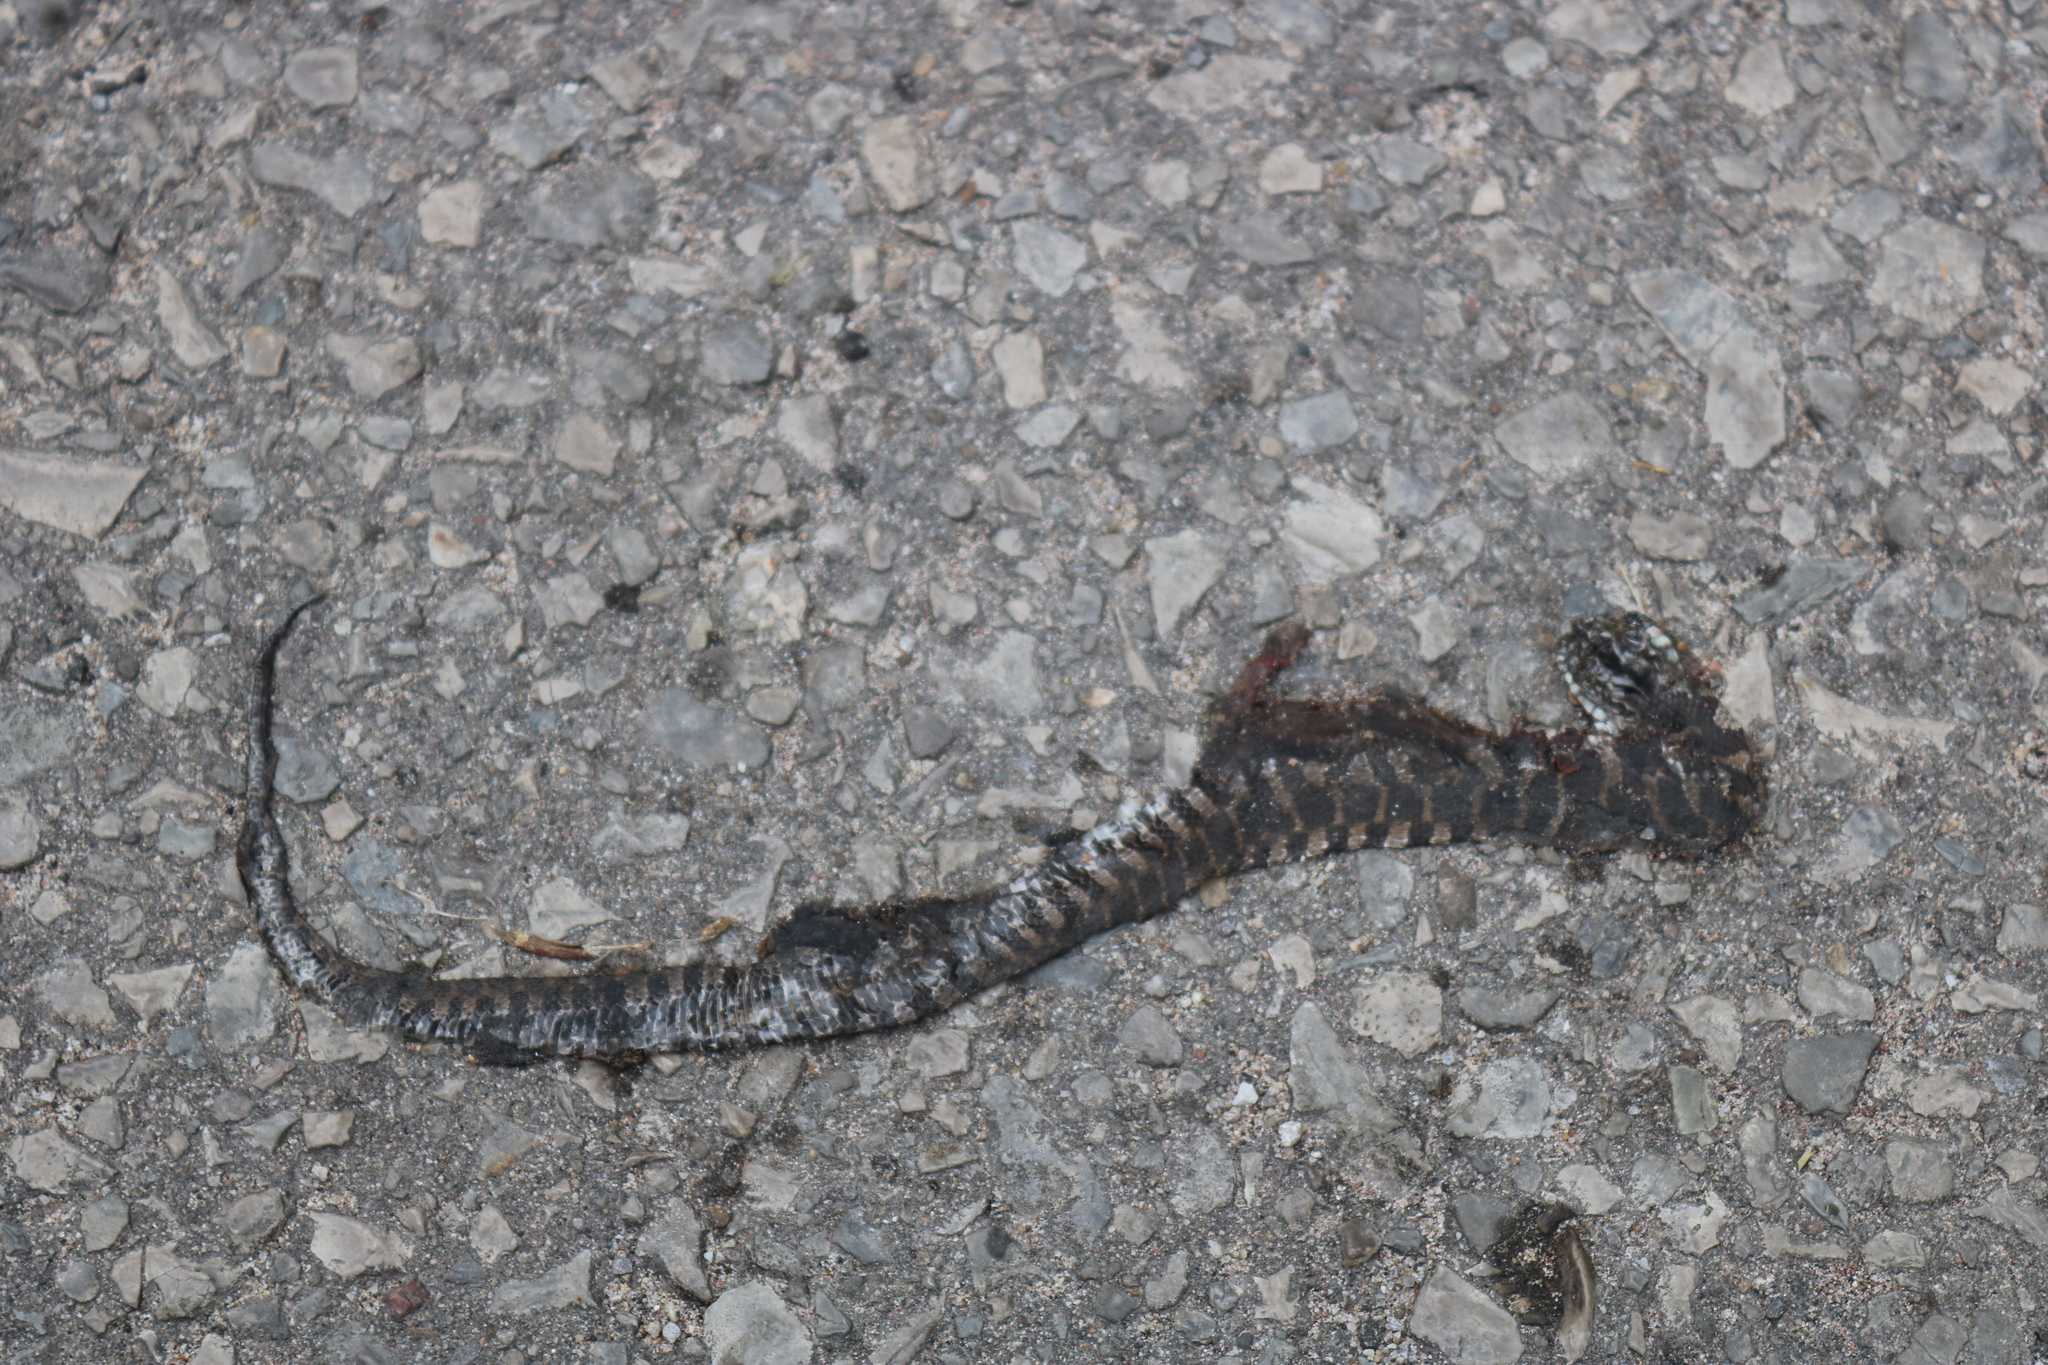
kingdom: Animalia
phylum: Chordata
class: Squamata
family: Colubridae
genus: Nerodia
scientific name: Nerodia sipedon
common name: Northern water snake
